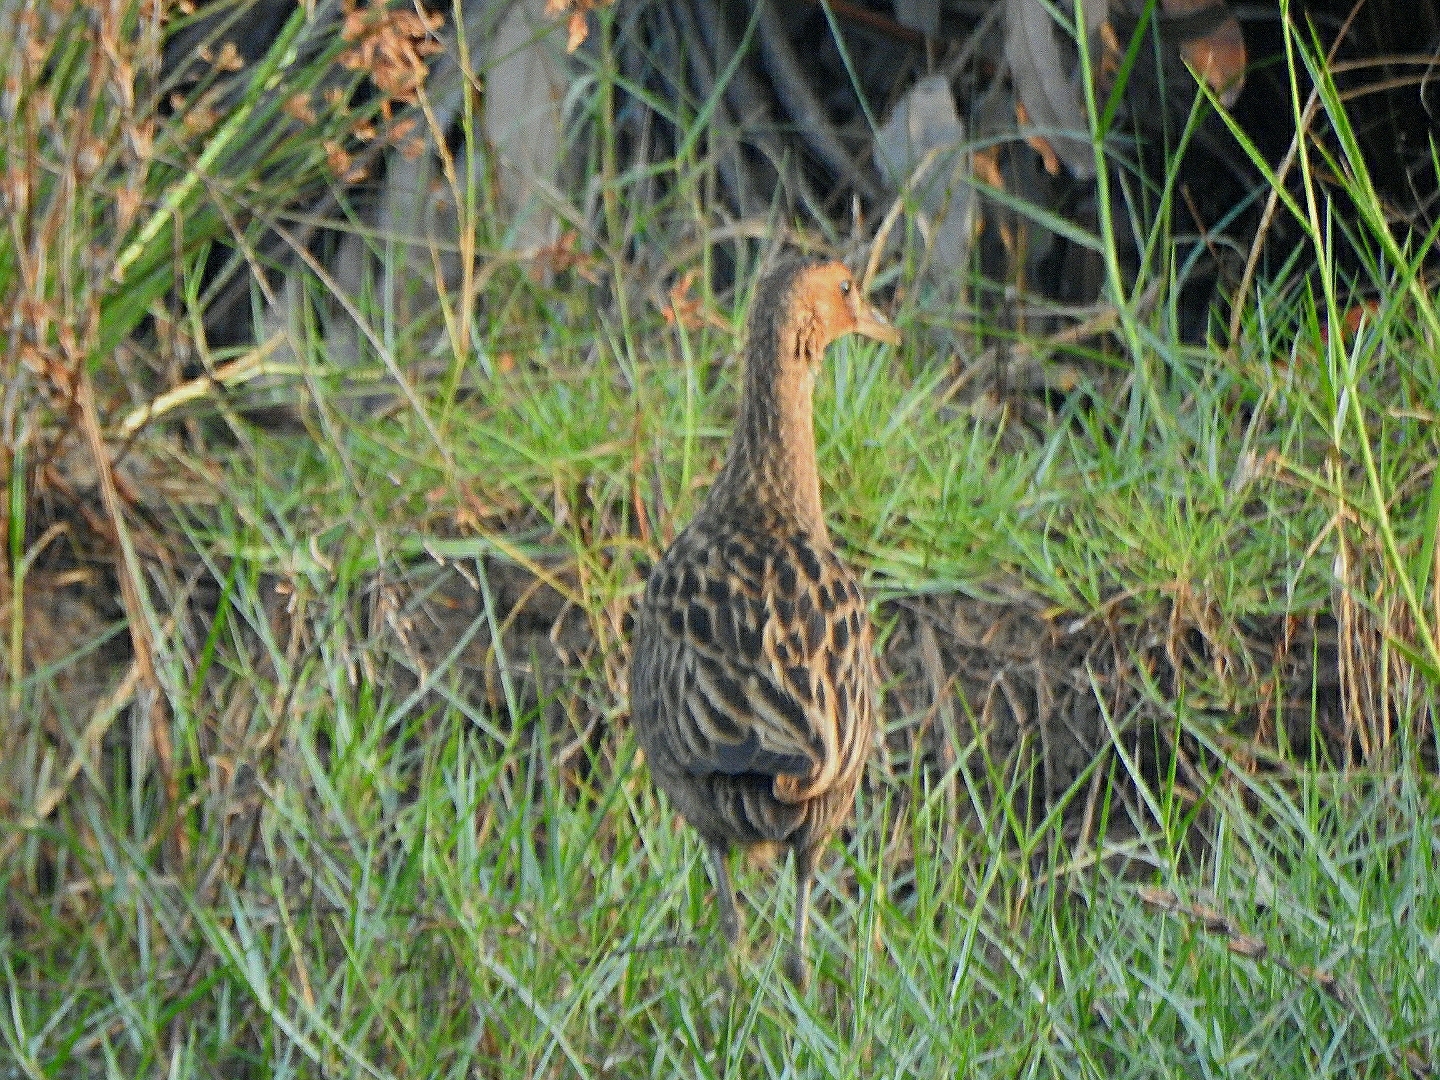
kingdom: Animalia
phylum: Chordata
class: Aves
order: Gruiformes
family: Rallidae
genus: Gallicrex
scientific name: Gallicrex cinerea
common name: Watercock
